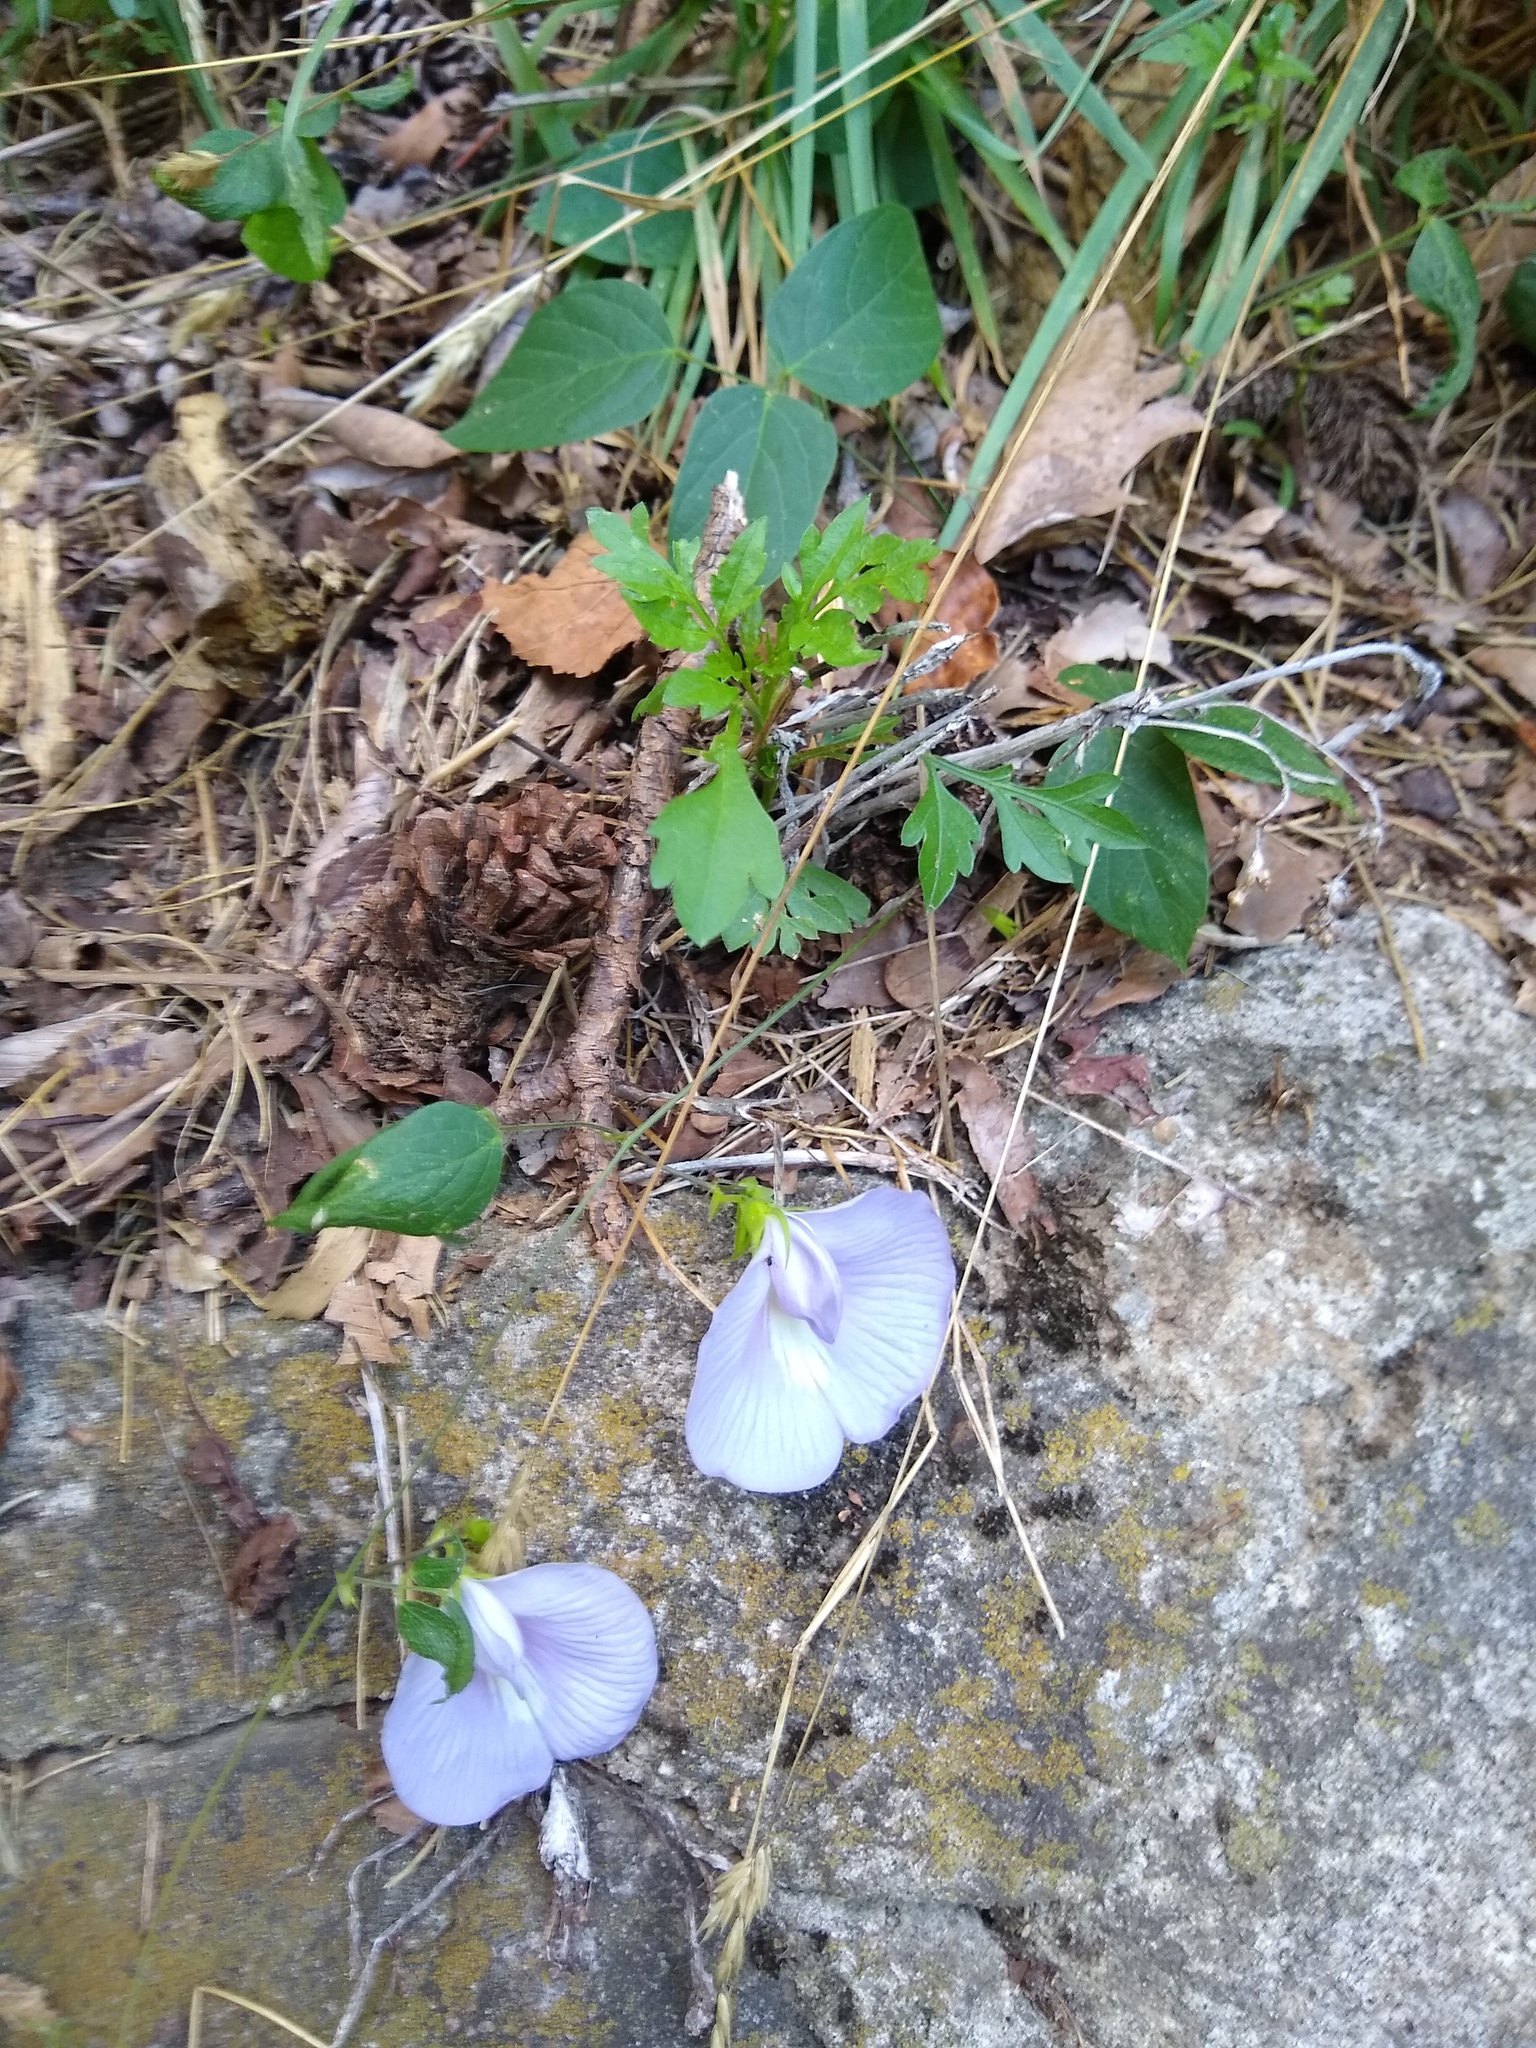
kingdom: Plantae
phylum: Tracheophyta
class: Magnoliopsida
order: Fabales
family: Fabaceae
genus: Centrosema
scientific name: Centrosema virginianum
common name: Butterfly-pea
